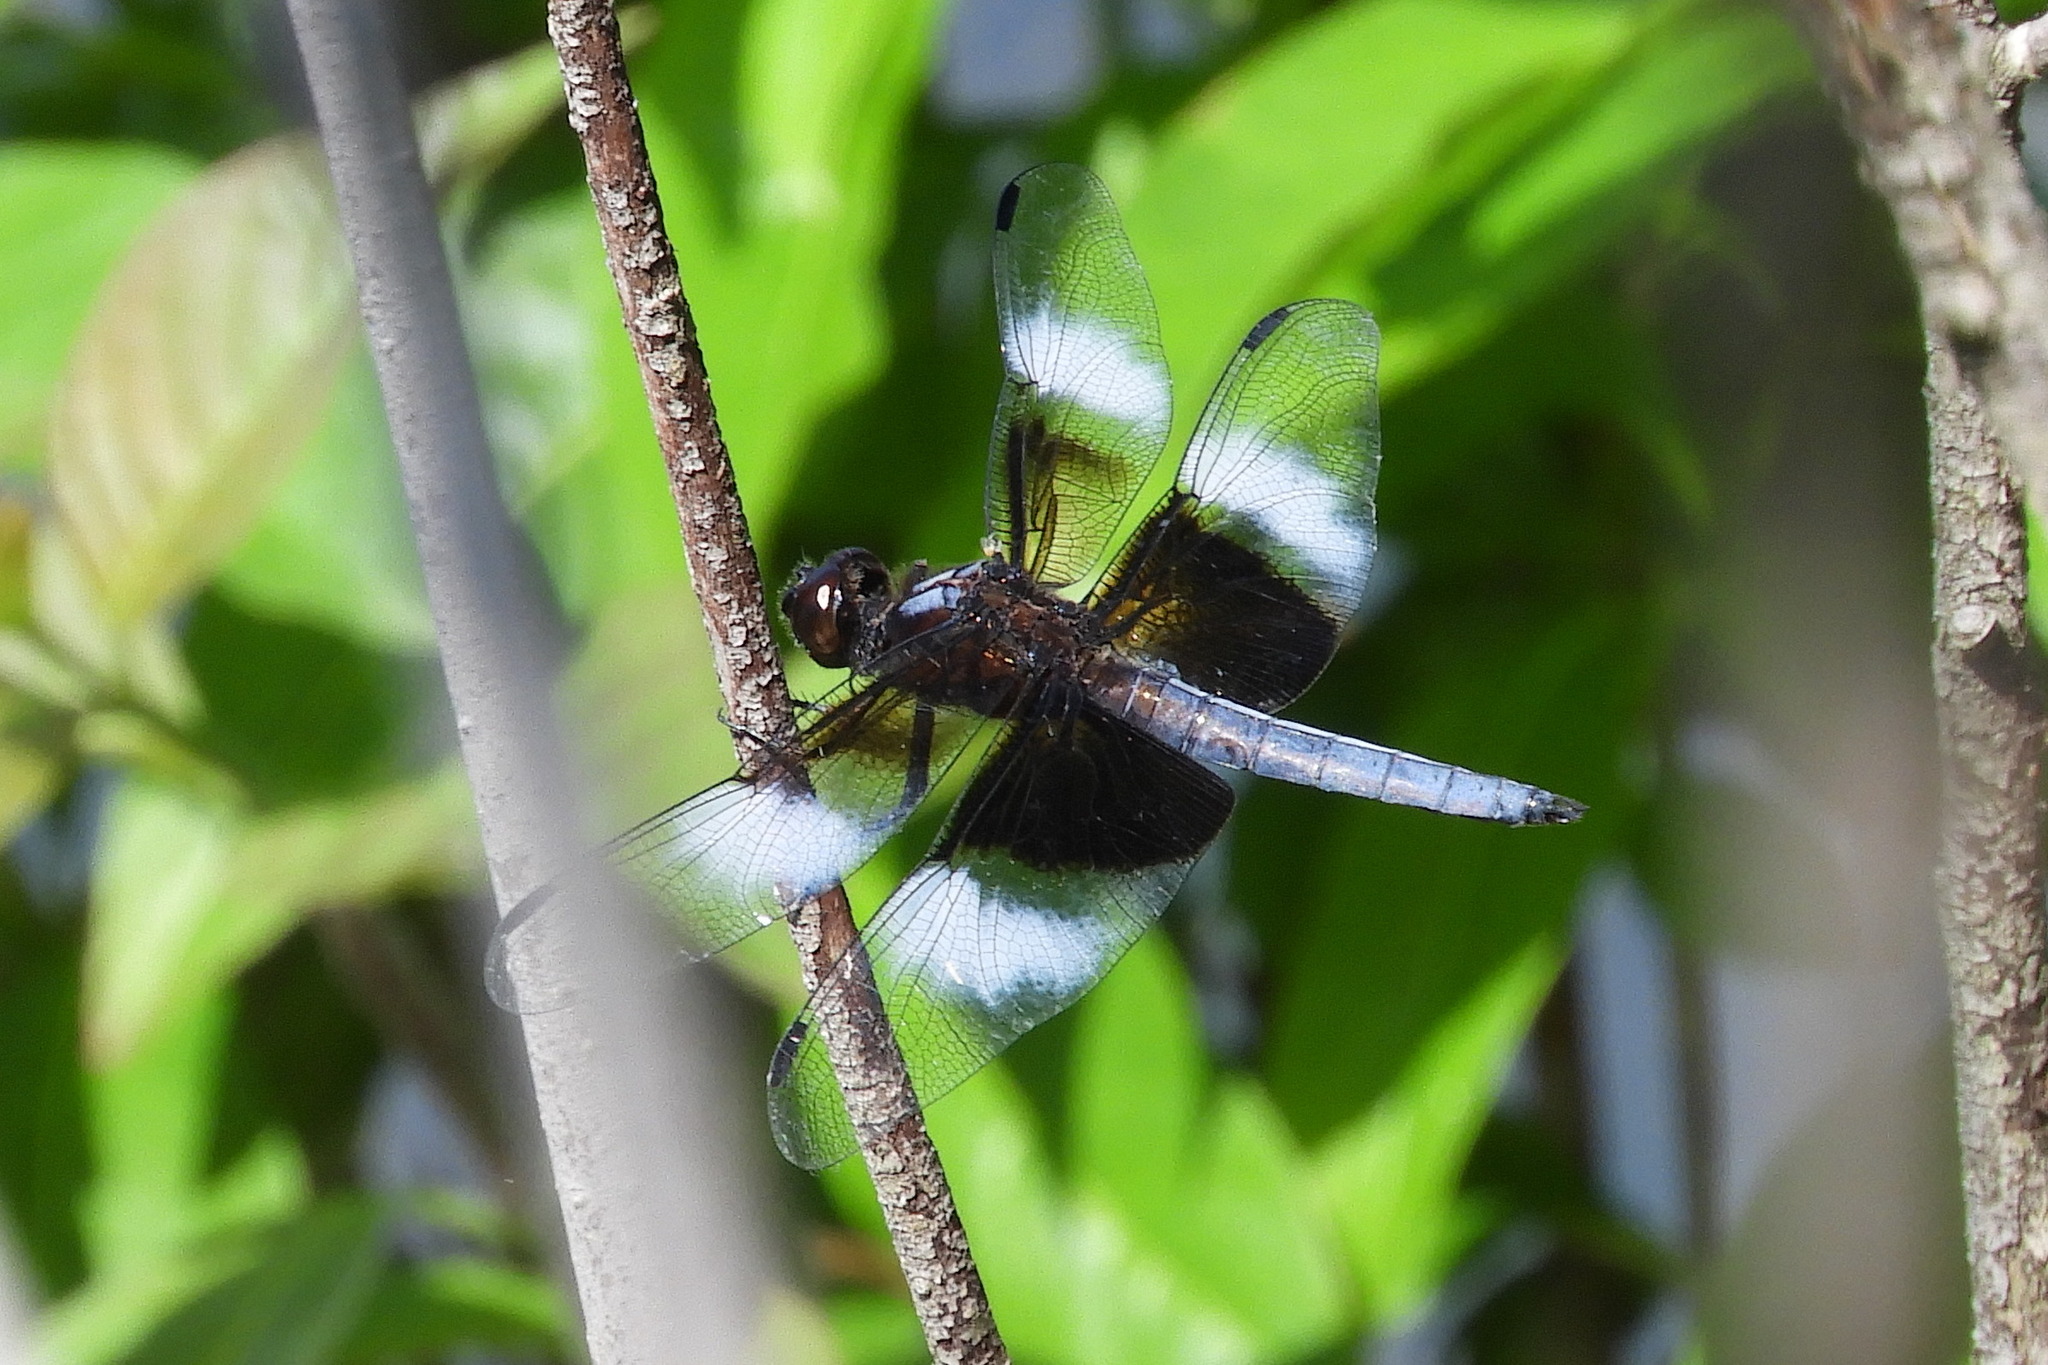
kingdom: Animalia
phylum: Arthropoda
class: Insecta
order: Odonata
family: Libellulidae
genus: Libellula
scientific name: Libellula luctuosa
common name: Widow skimmer
